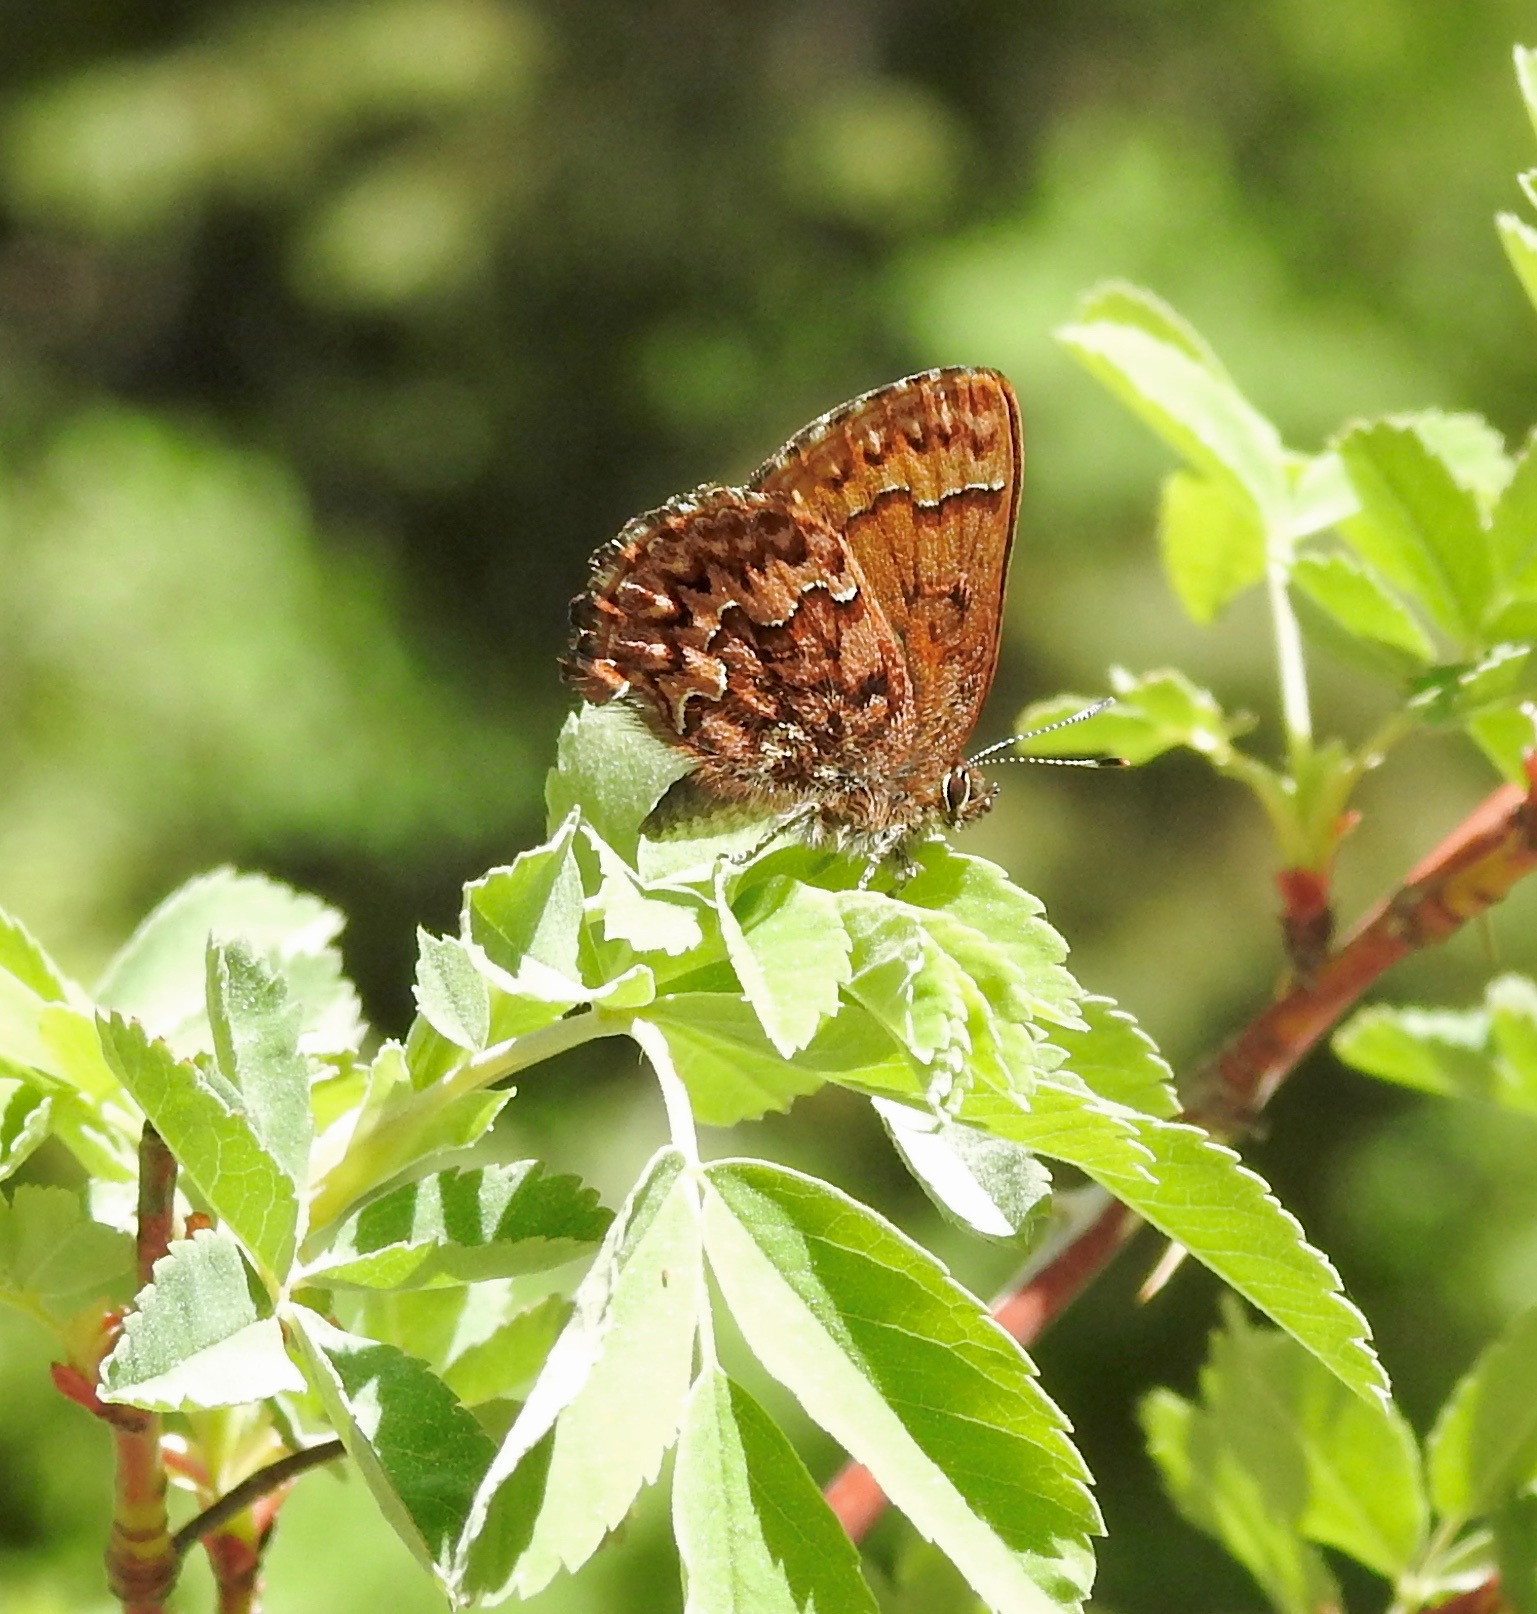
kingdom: Animalia
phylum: Arthropoda
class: Insecta
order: Lepidoptera
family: Lycaenidae
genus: Incisalia
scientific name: Incisalia eryphon
